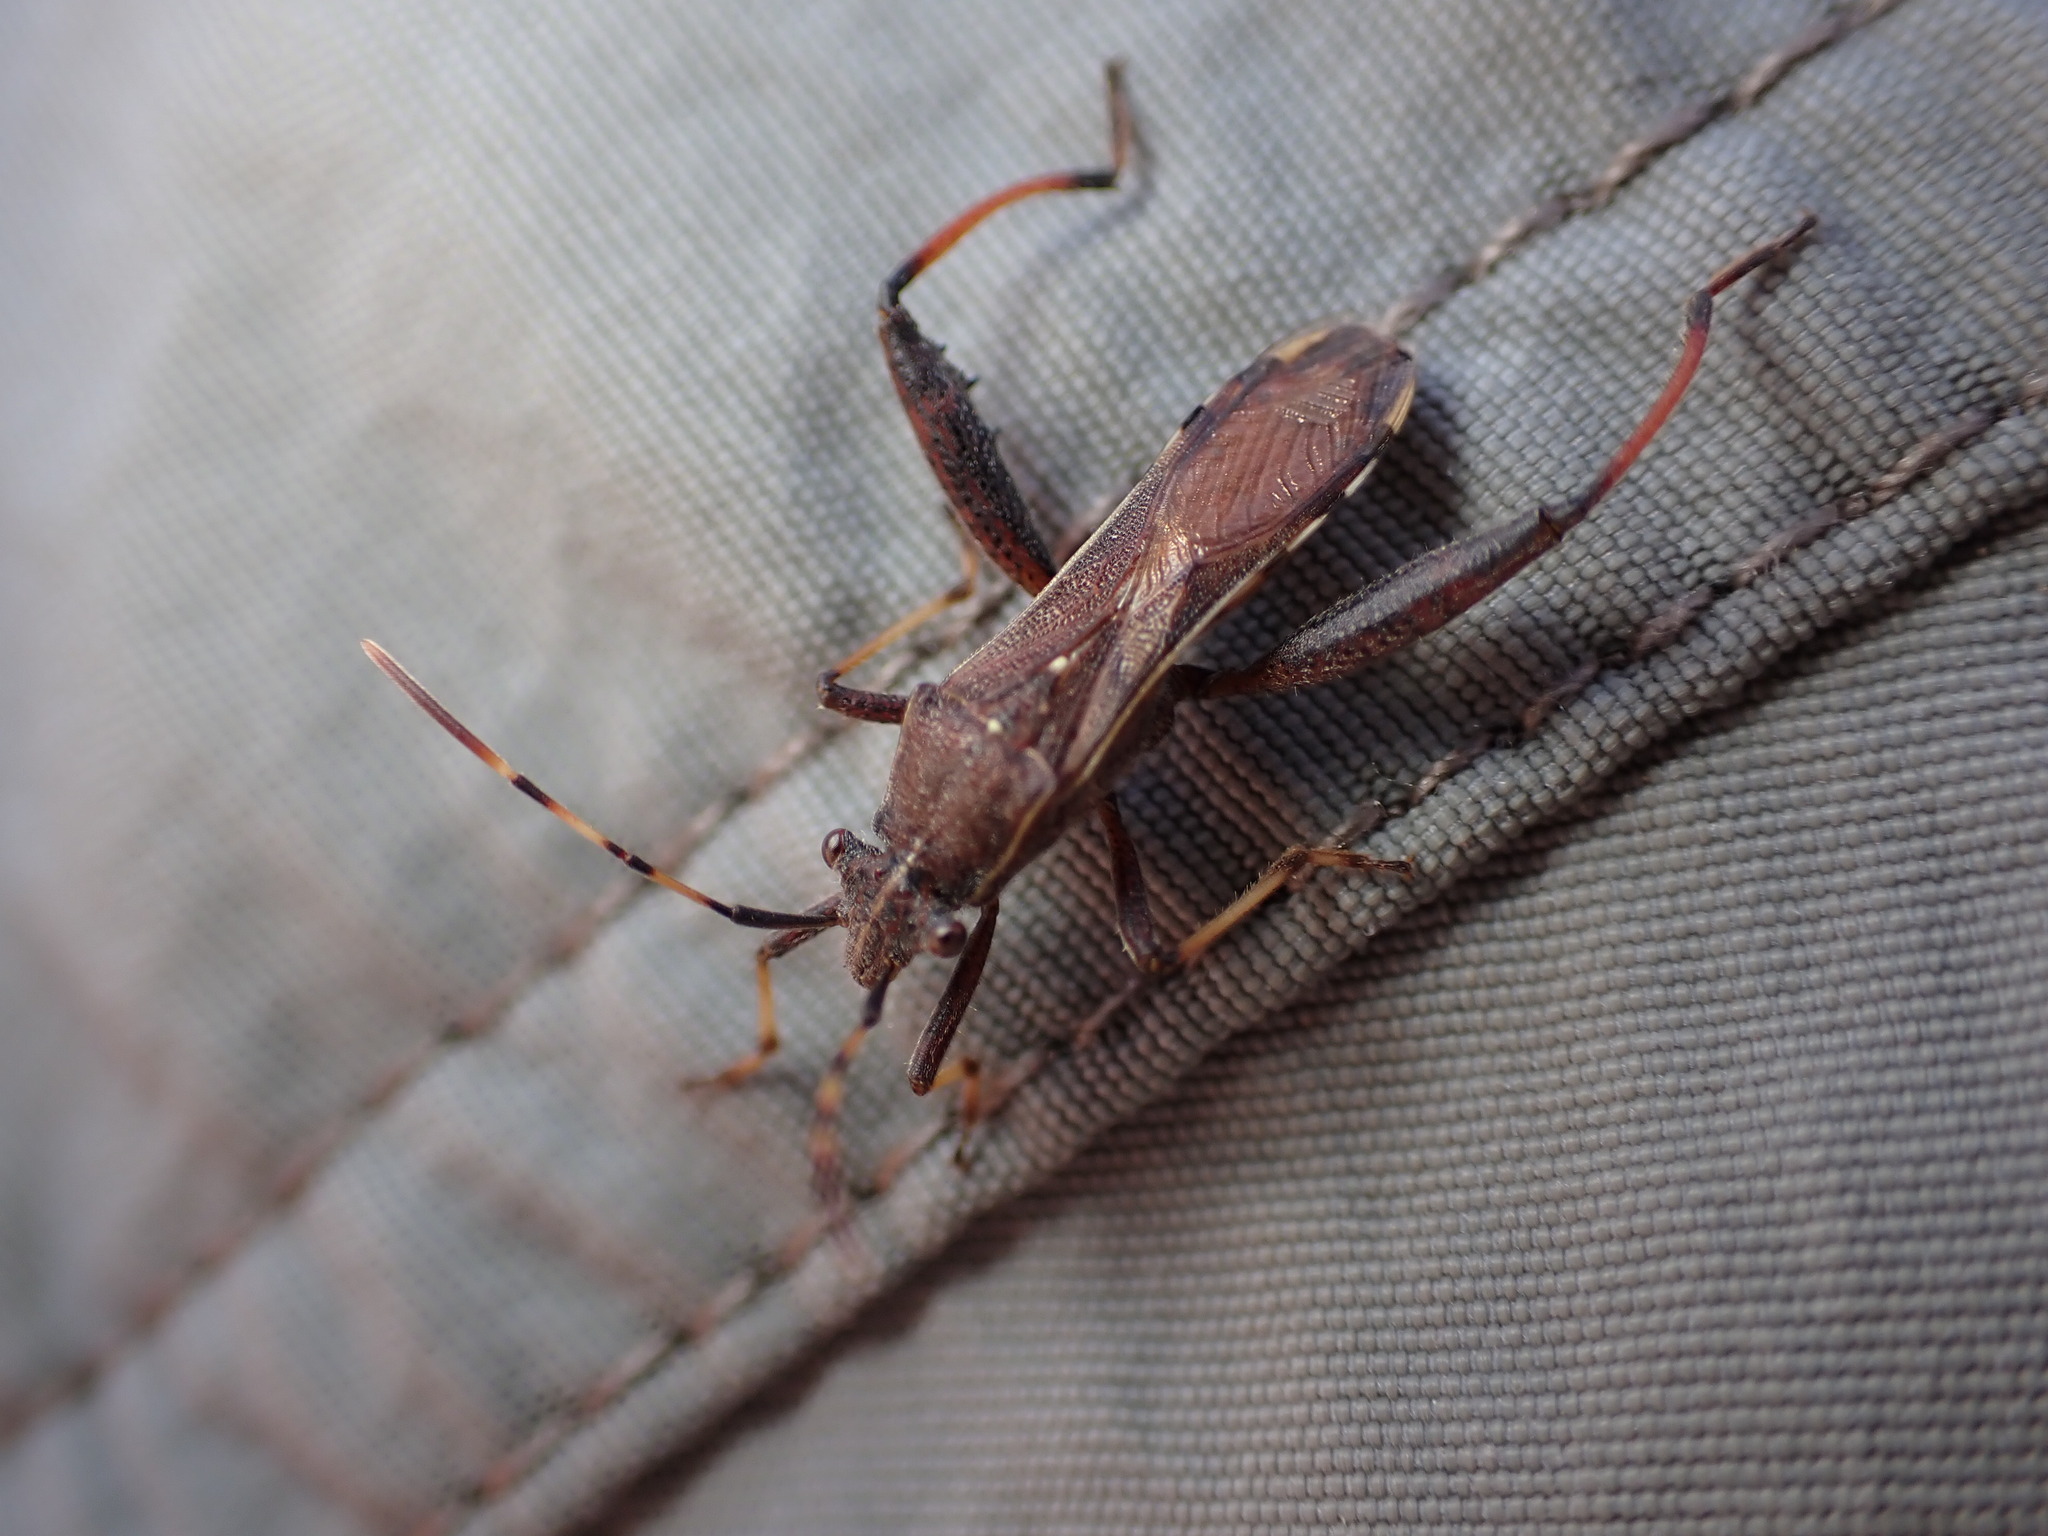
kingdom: Animalia
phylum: Arthropoda
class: Insecta
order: Hemiptera
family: Alydidae
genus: Camptopus
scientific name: Camptopus lateralis
